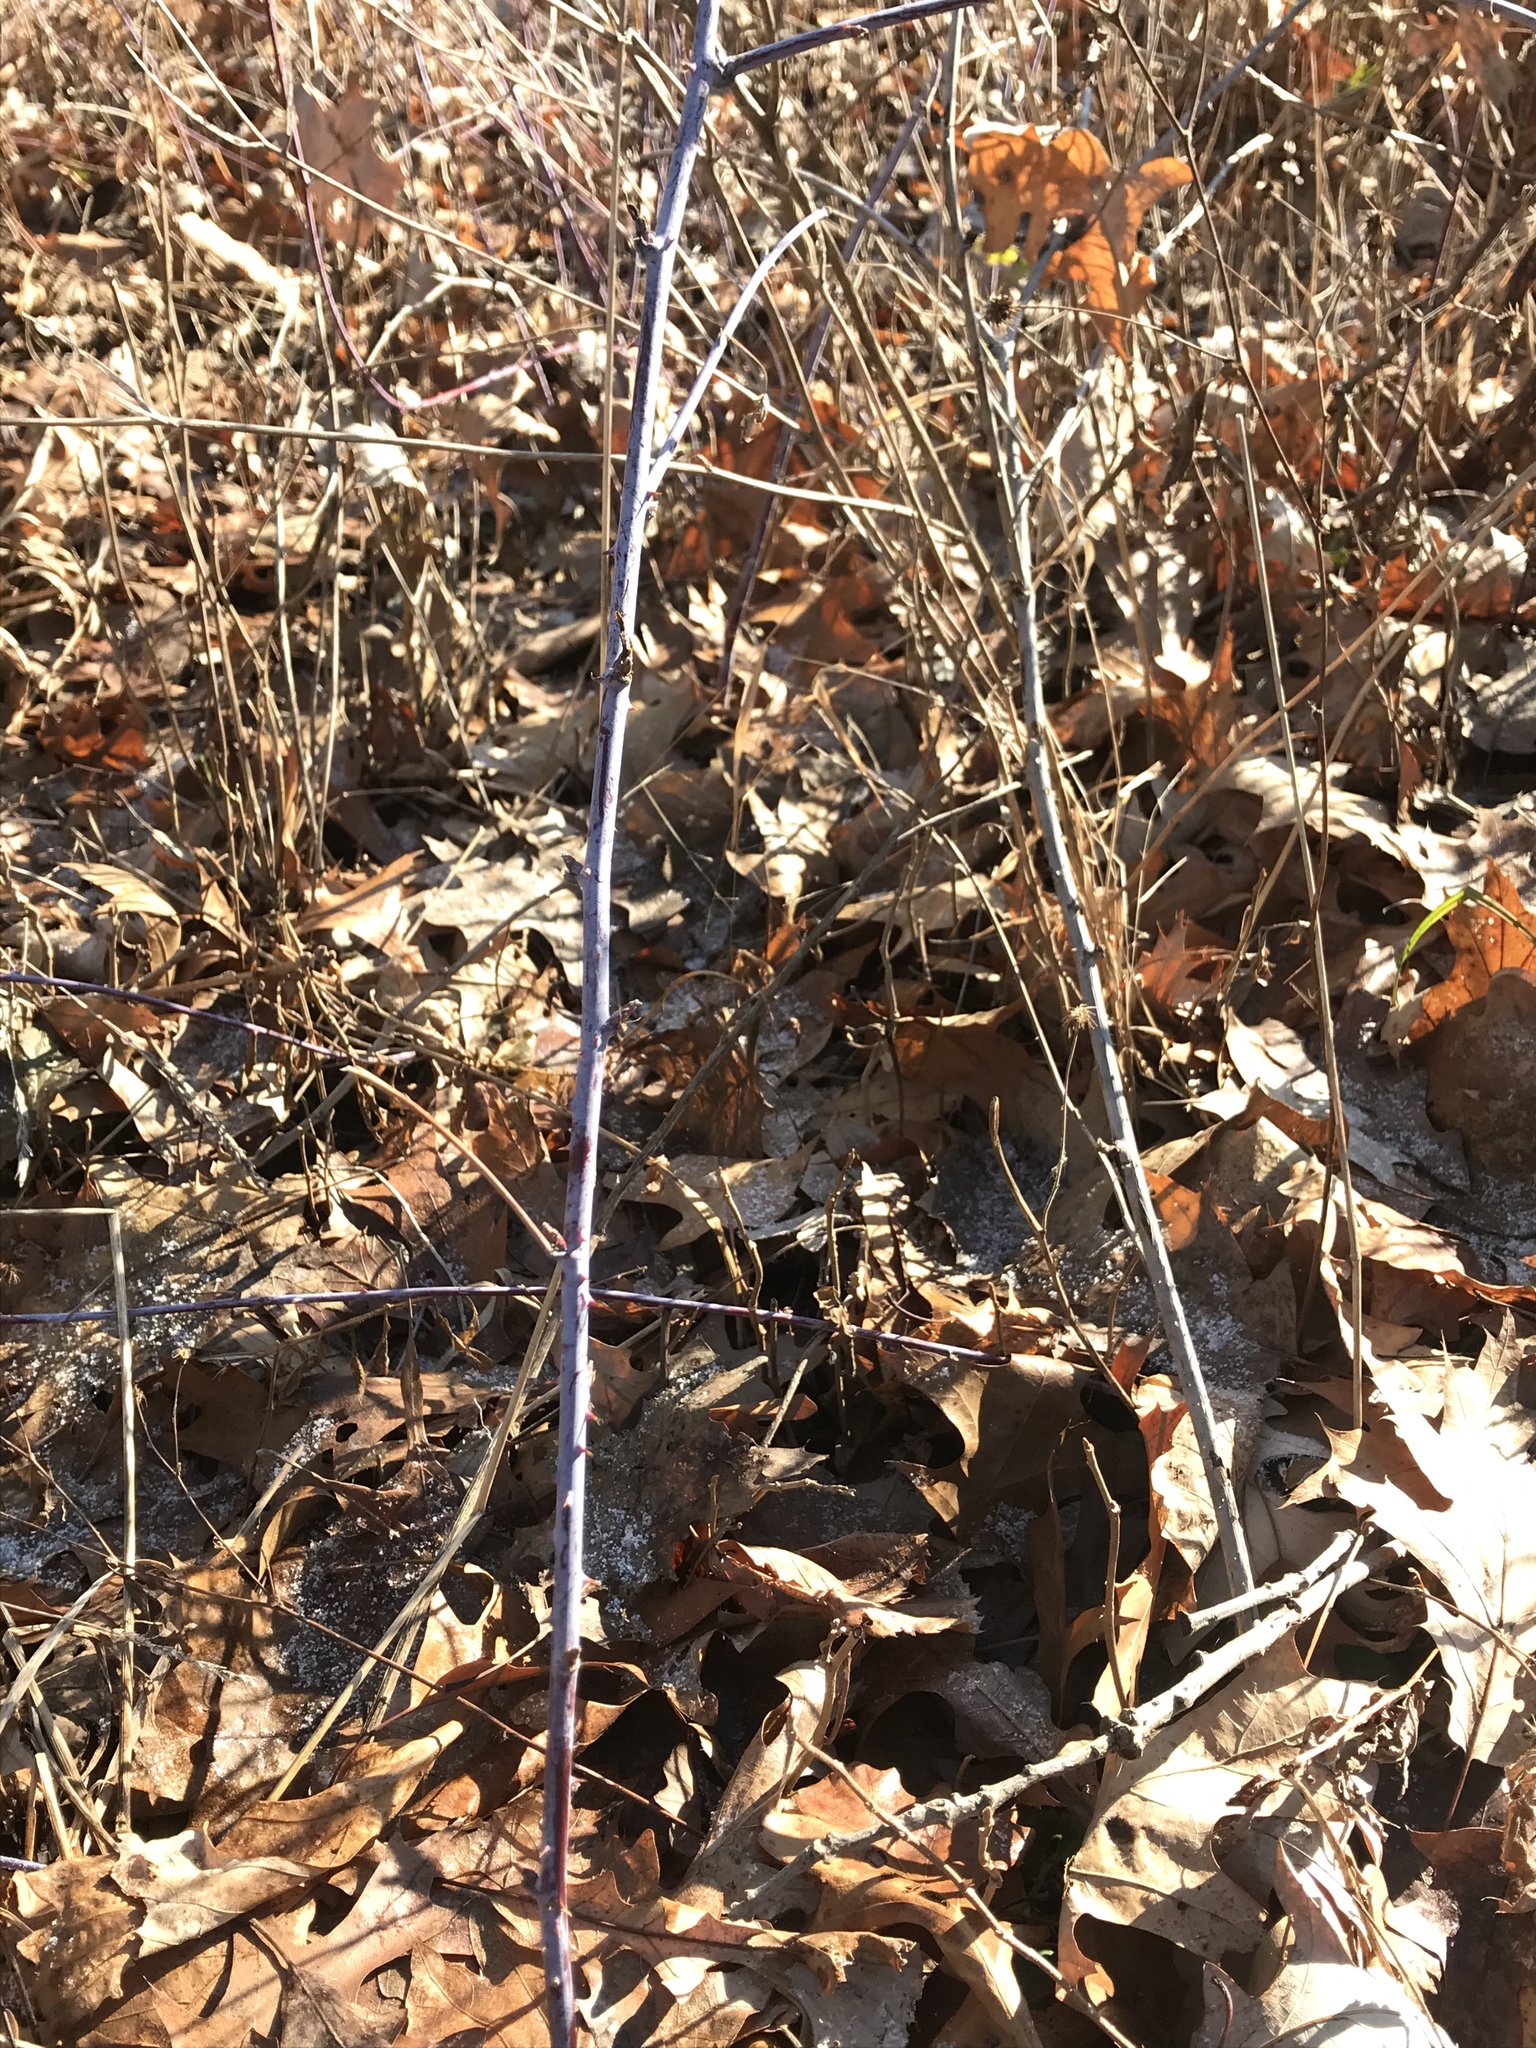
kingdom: Plantae
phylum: Tracheophyta
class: Magnoliopsida
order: Rosales
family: Rosaceae
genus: Rubus
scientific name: Rubus occidentalis
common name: Black raspberry
